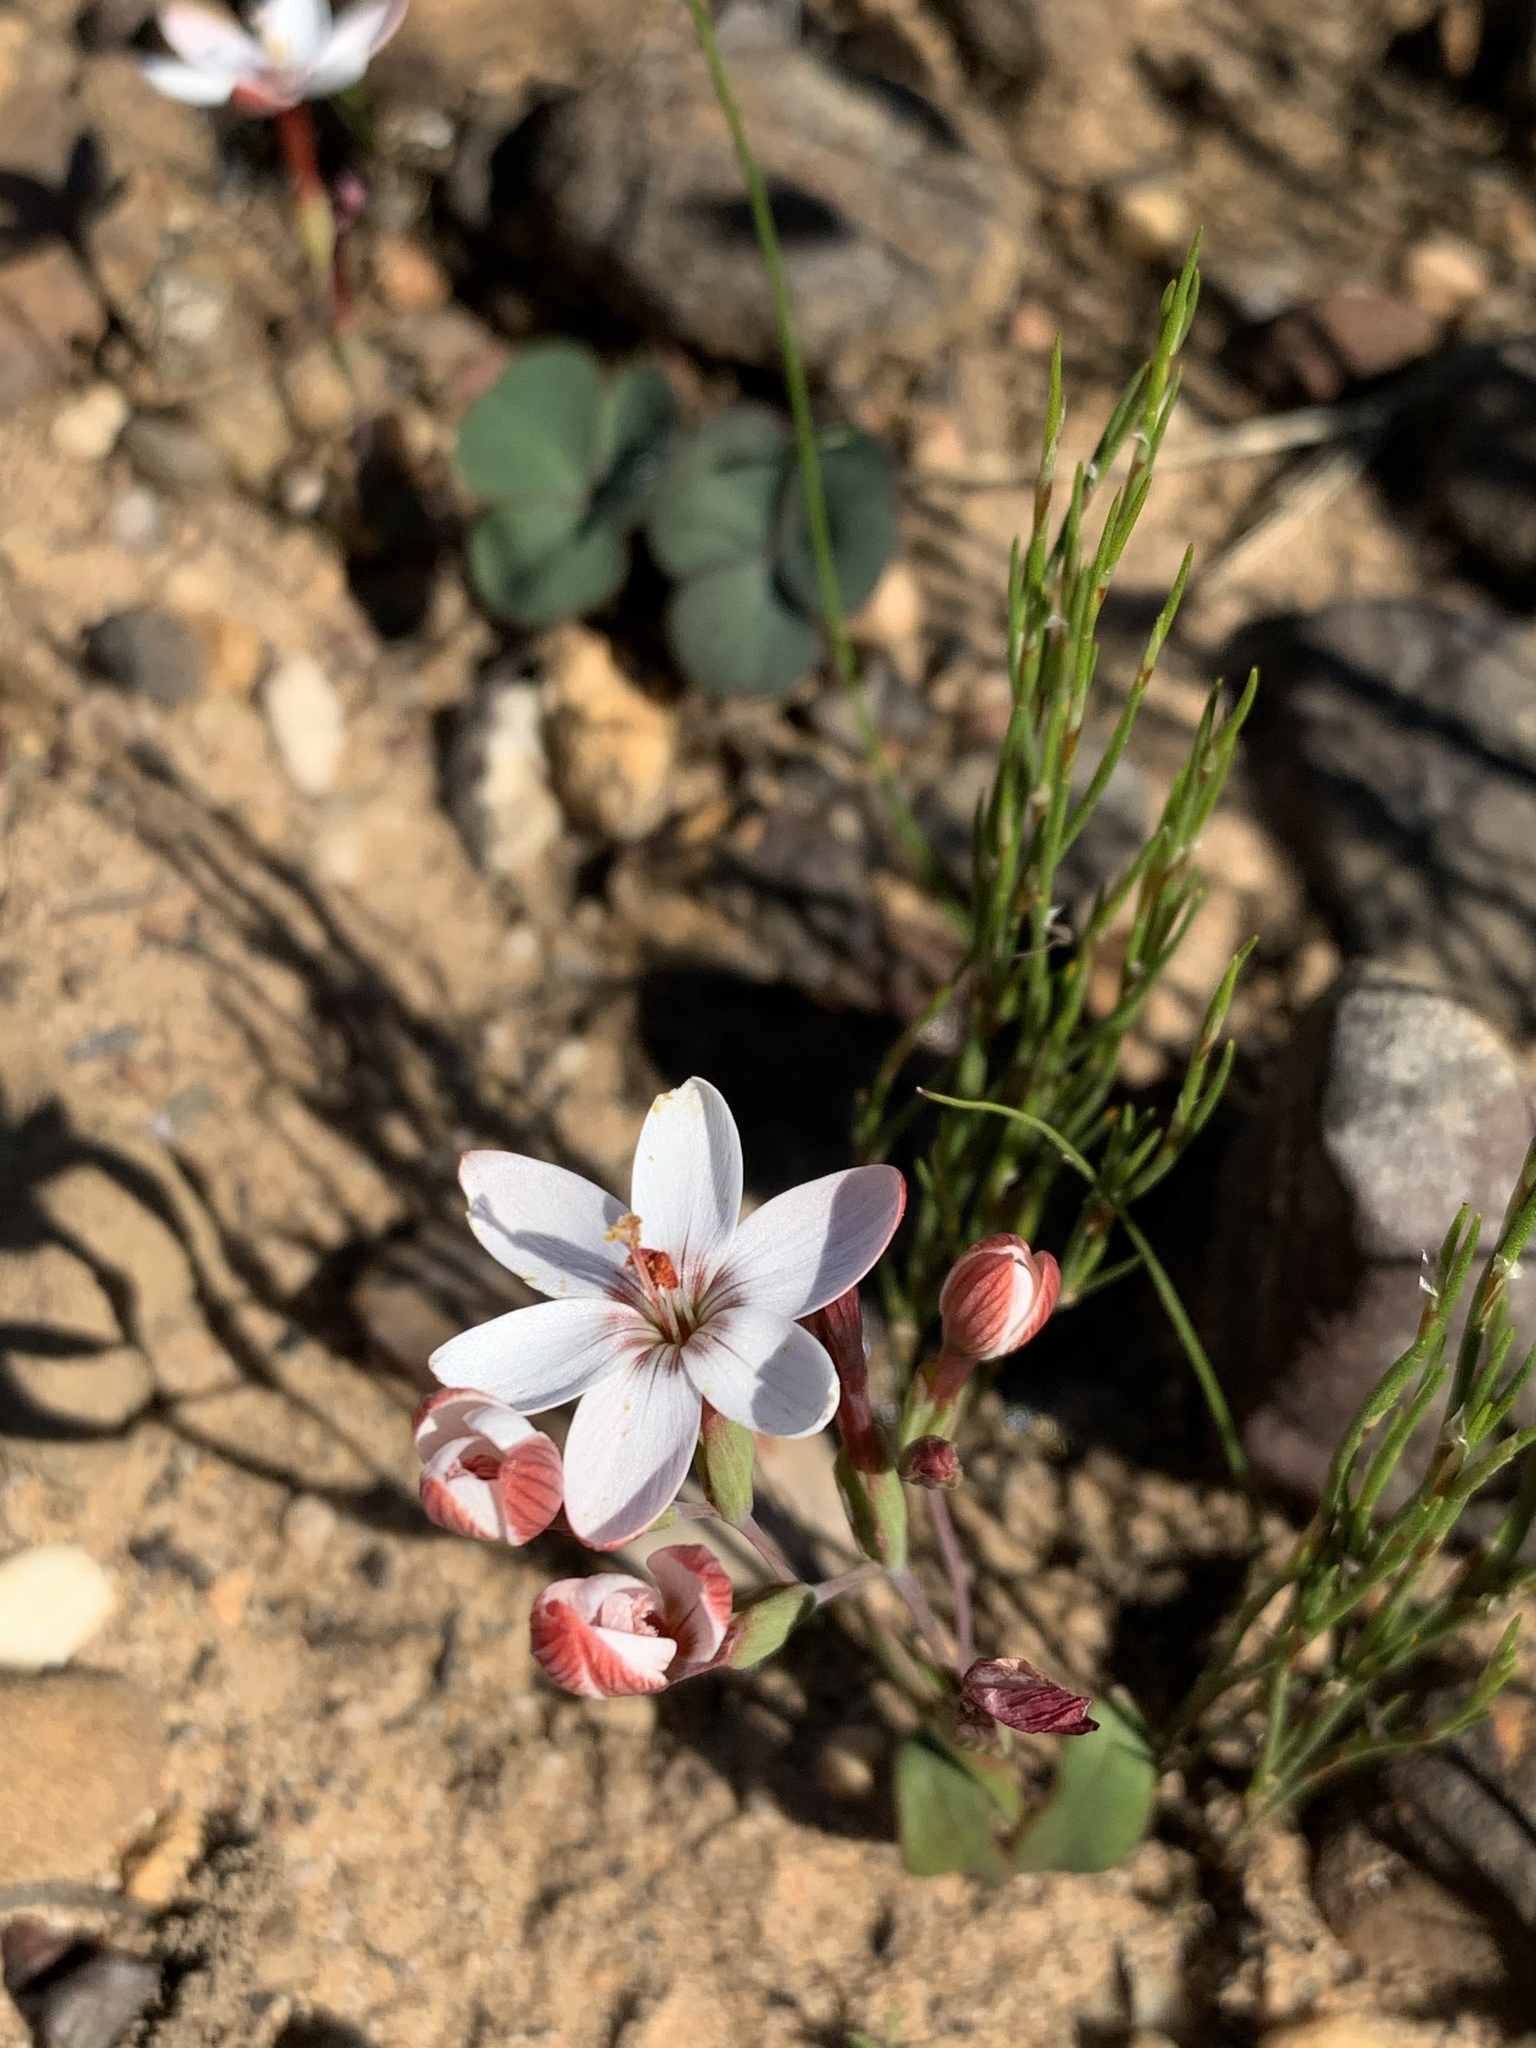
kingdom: Plantae
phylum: Tracheophyta
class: Liliopsida
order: Asparagales
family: Iridaceae
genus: Geissorhiza
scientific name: Geissorhiza ovata
